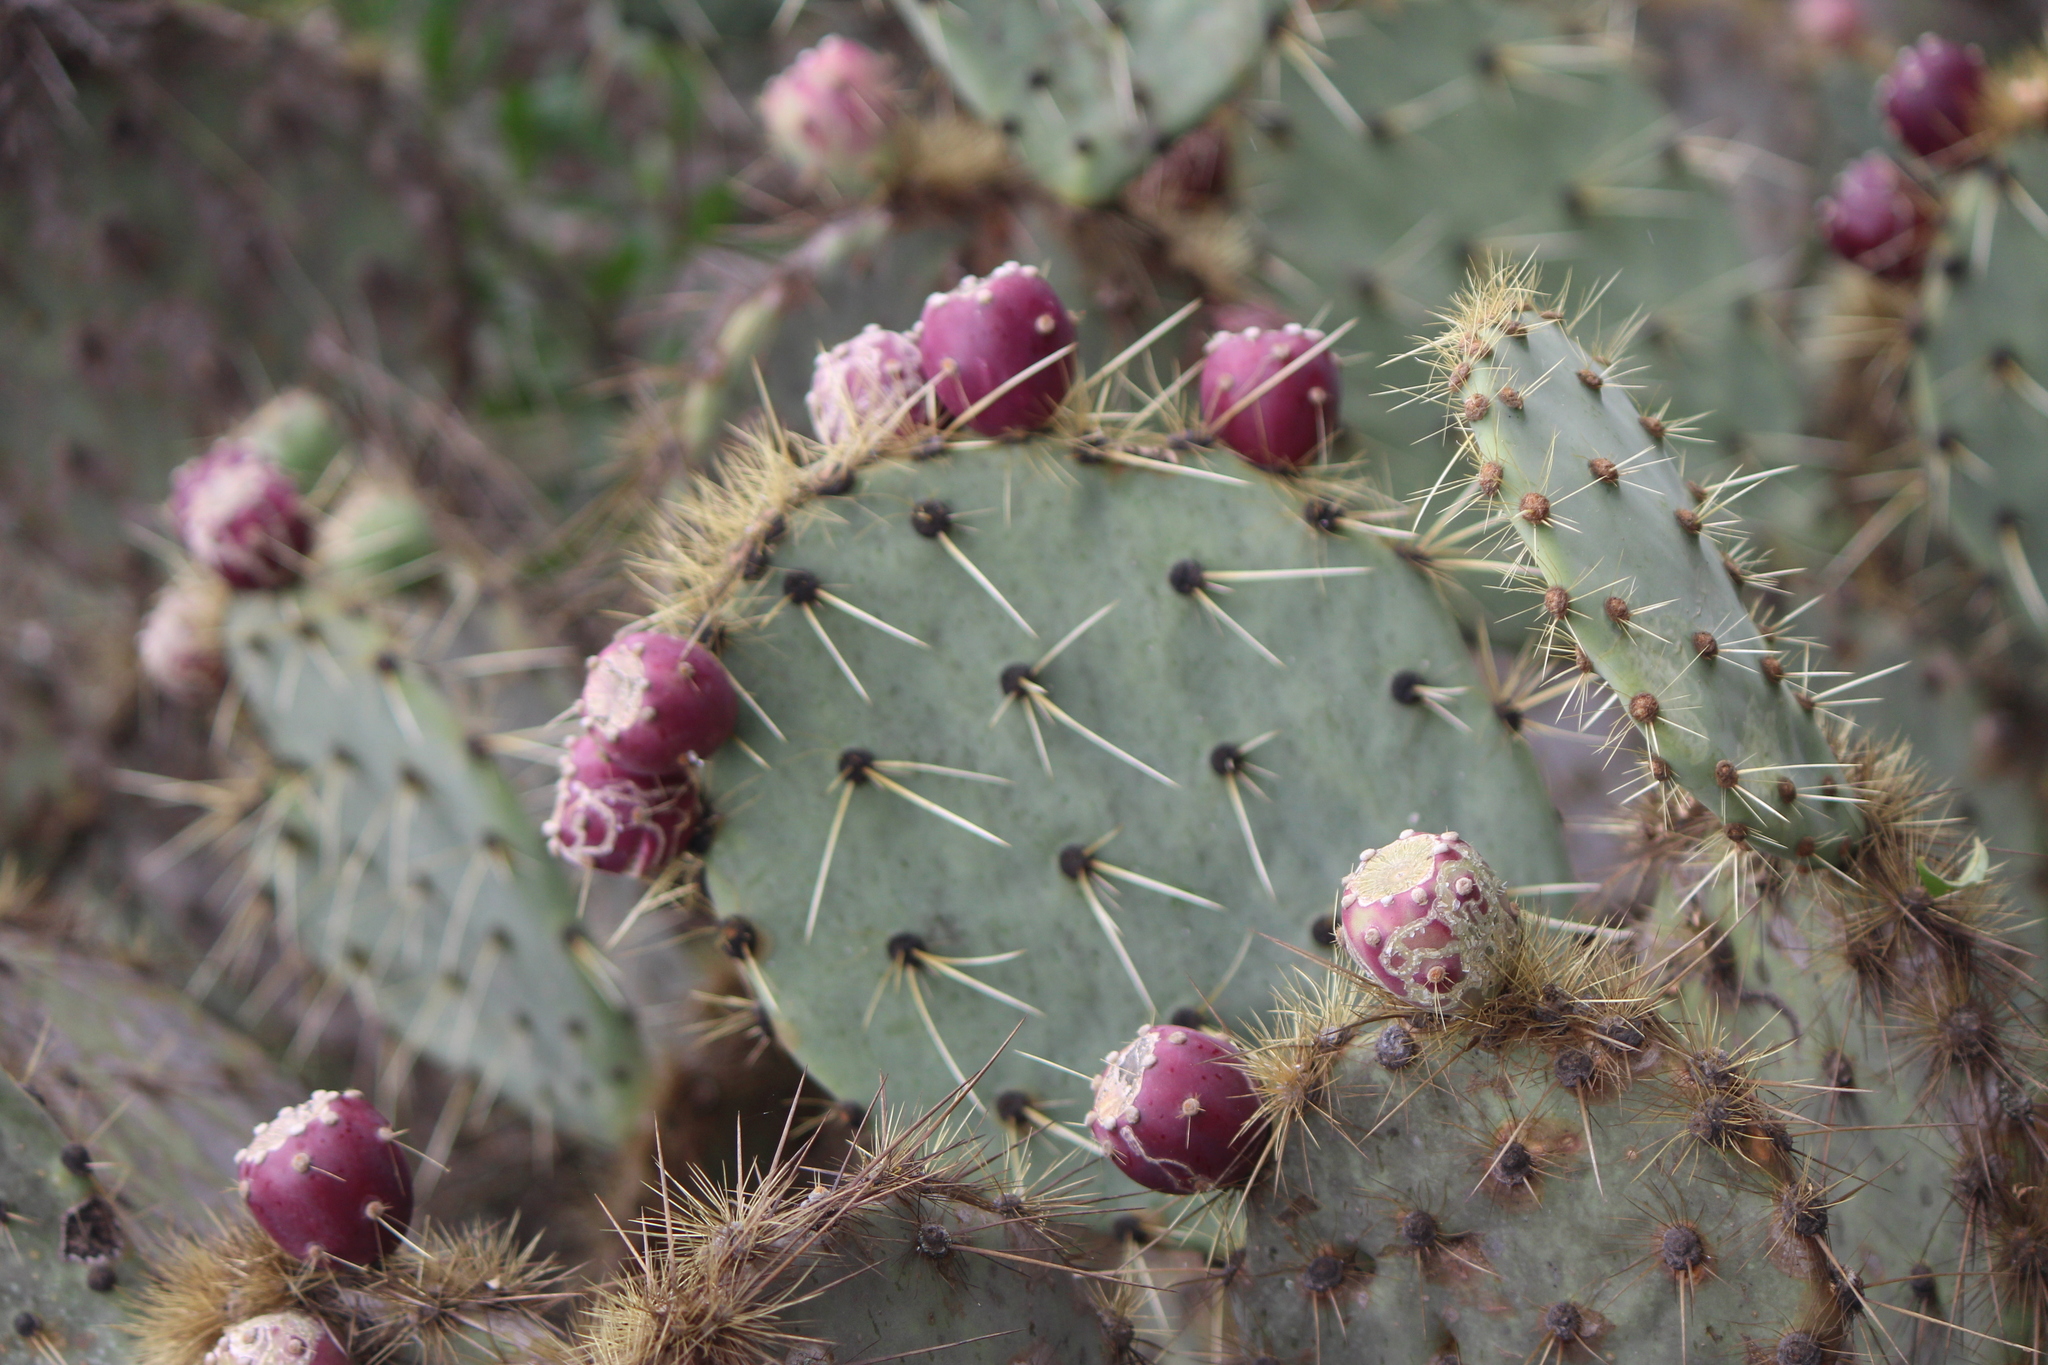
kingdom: Plantae
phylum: Tracheophyta
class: Magnoliopsida
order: Caryophyllales
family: Cactaceae
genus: Opuntia
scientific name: Opuntia engelmannii
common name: Cactus-apple
